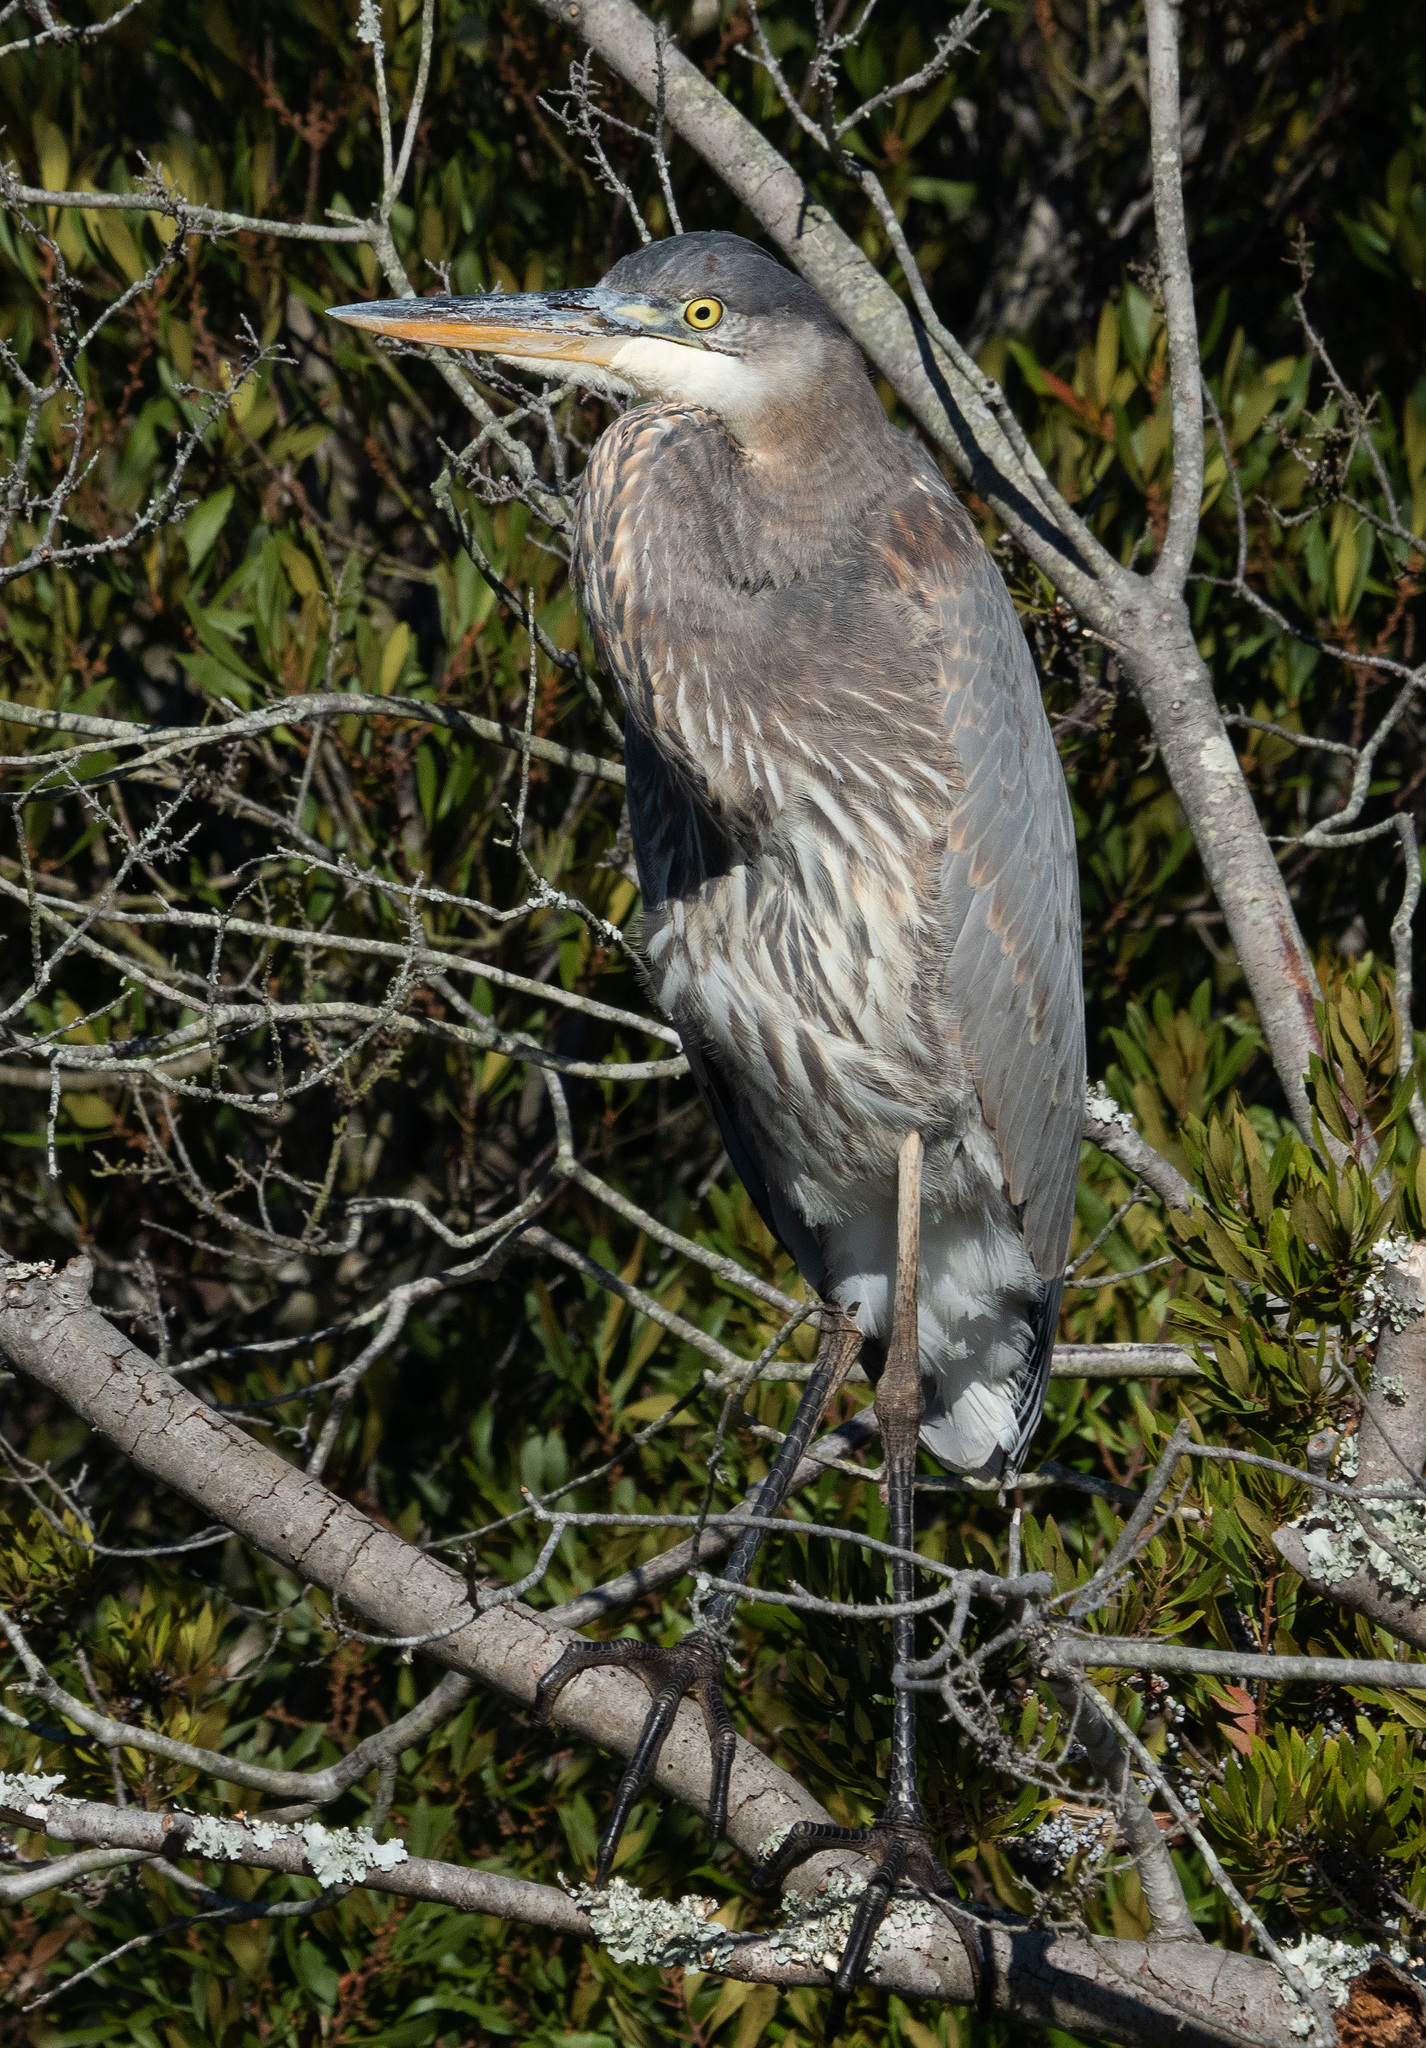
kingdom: Animalia
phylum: Chordata
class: Aves
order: Pelecaniformes
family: Ardeidae
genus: Ardea
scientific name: Ardea herodias
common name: Great blue heron
